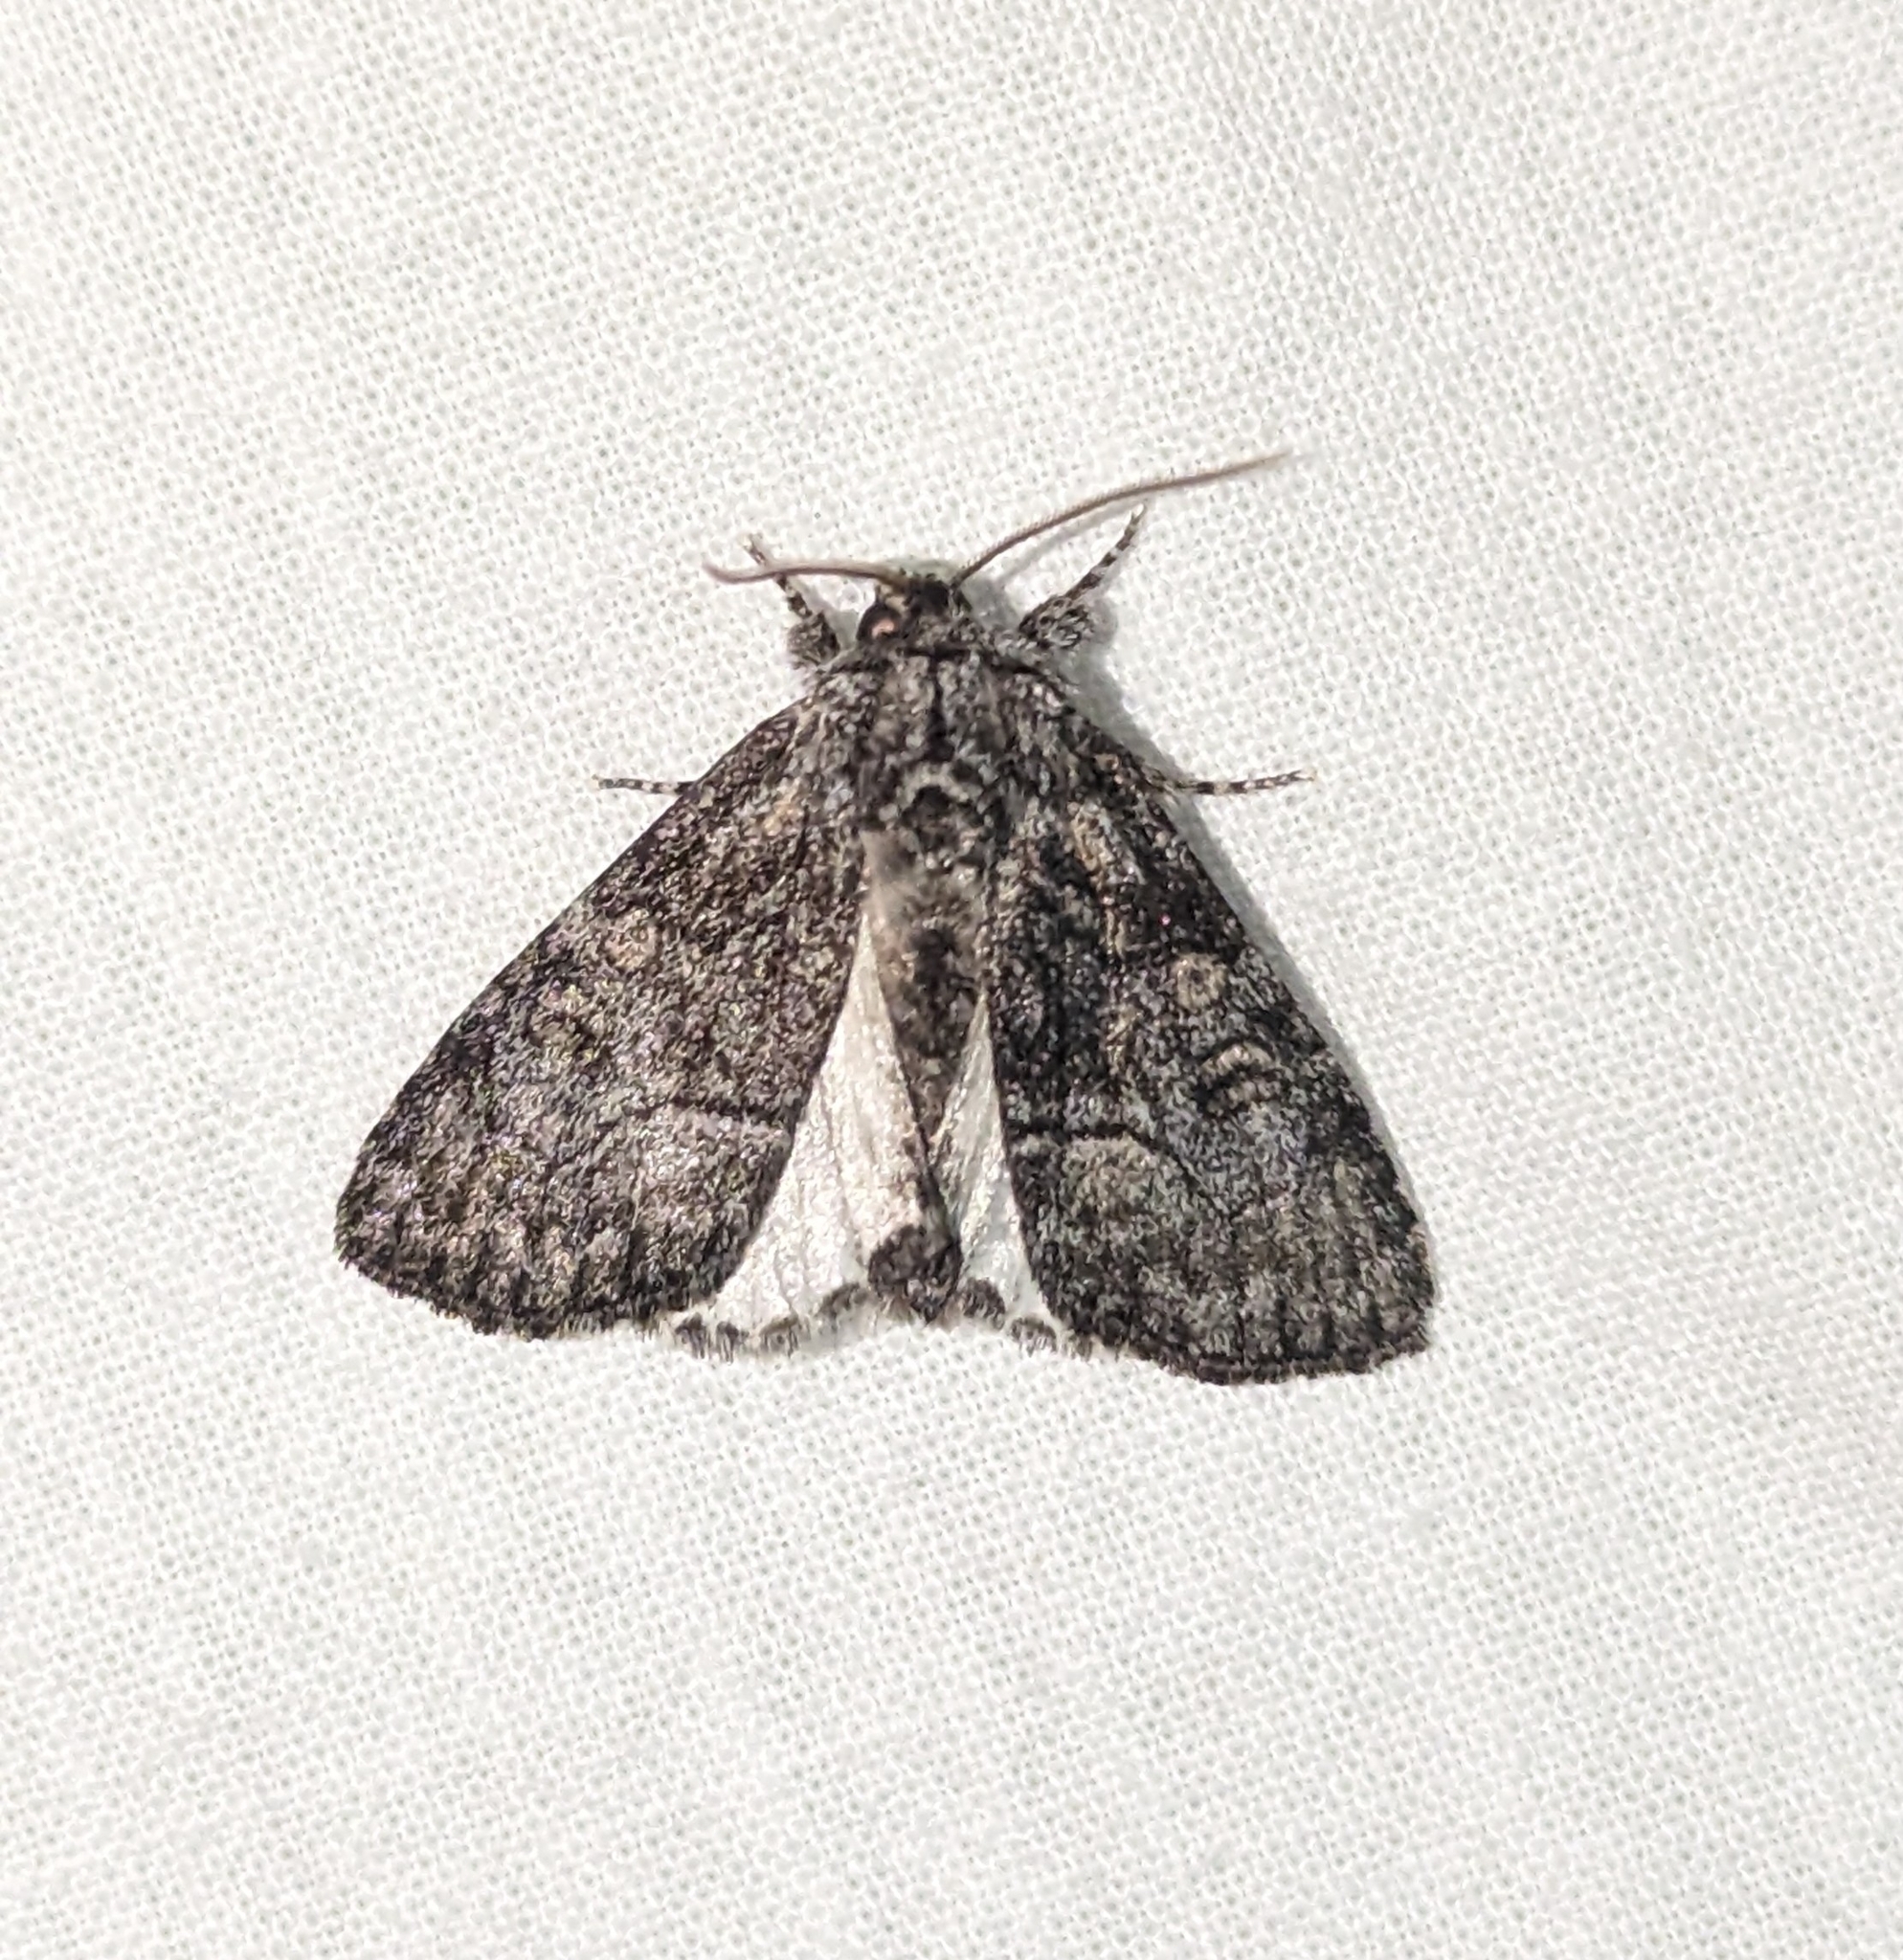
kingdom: Animalia
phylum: Arthropoda
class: Insecta
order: Lepidoptera
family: Noctuidae
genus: Raphia
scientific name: Raphia frater
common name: Brother
